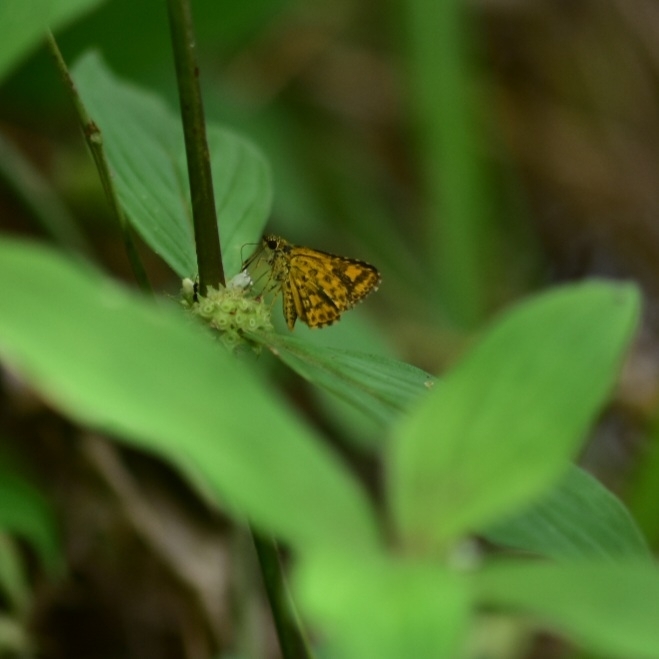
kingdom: Animalia
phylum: Arthropoda
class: Insecta
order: Lepidoptera
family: Hesperiidae
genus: Ampittia
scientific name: Ampittia dioscorides
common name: Common bush hopper
